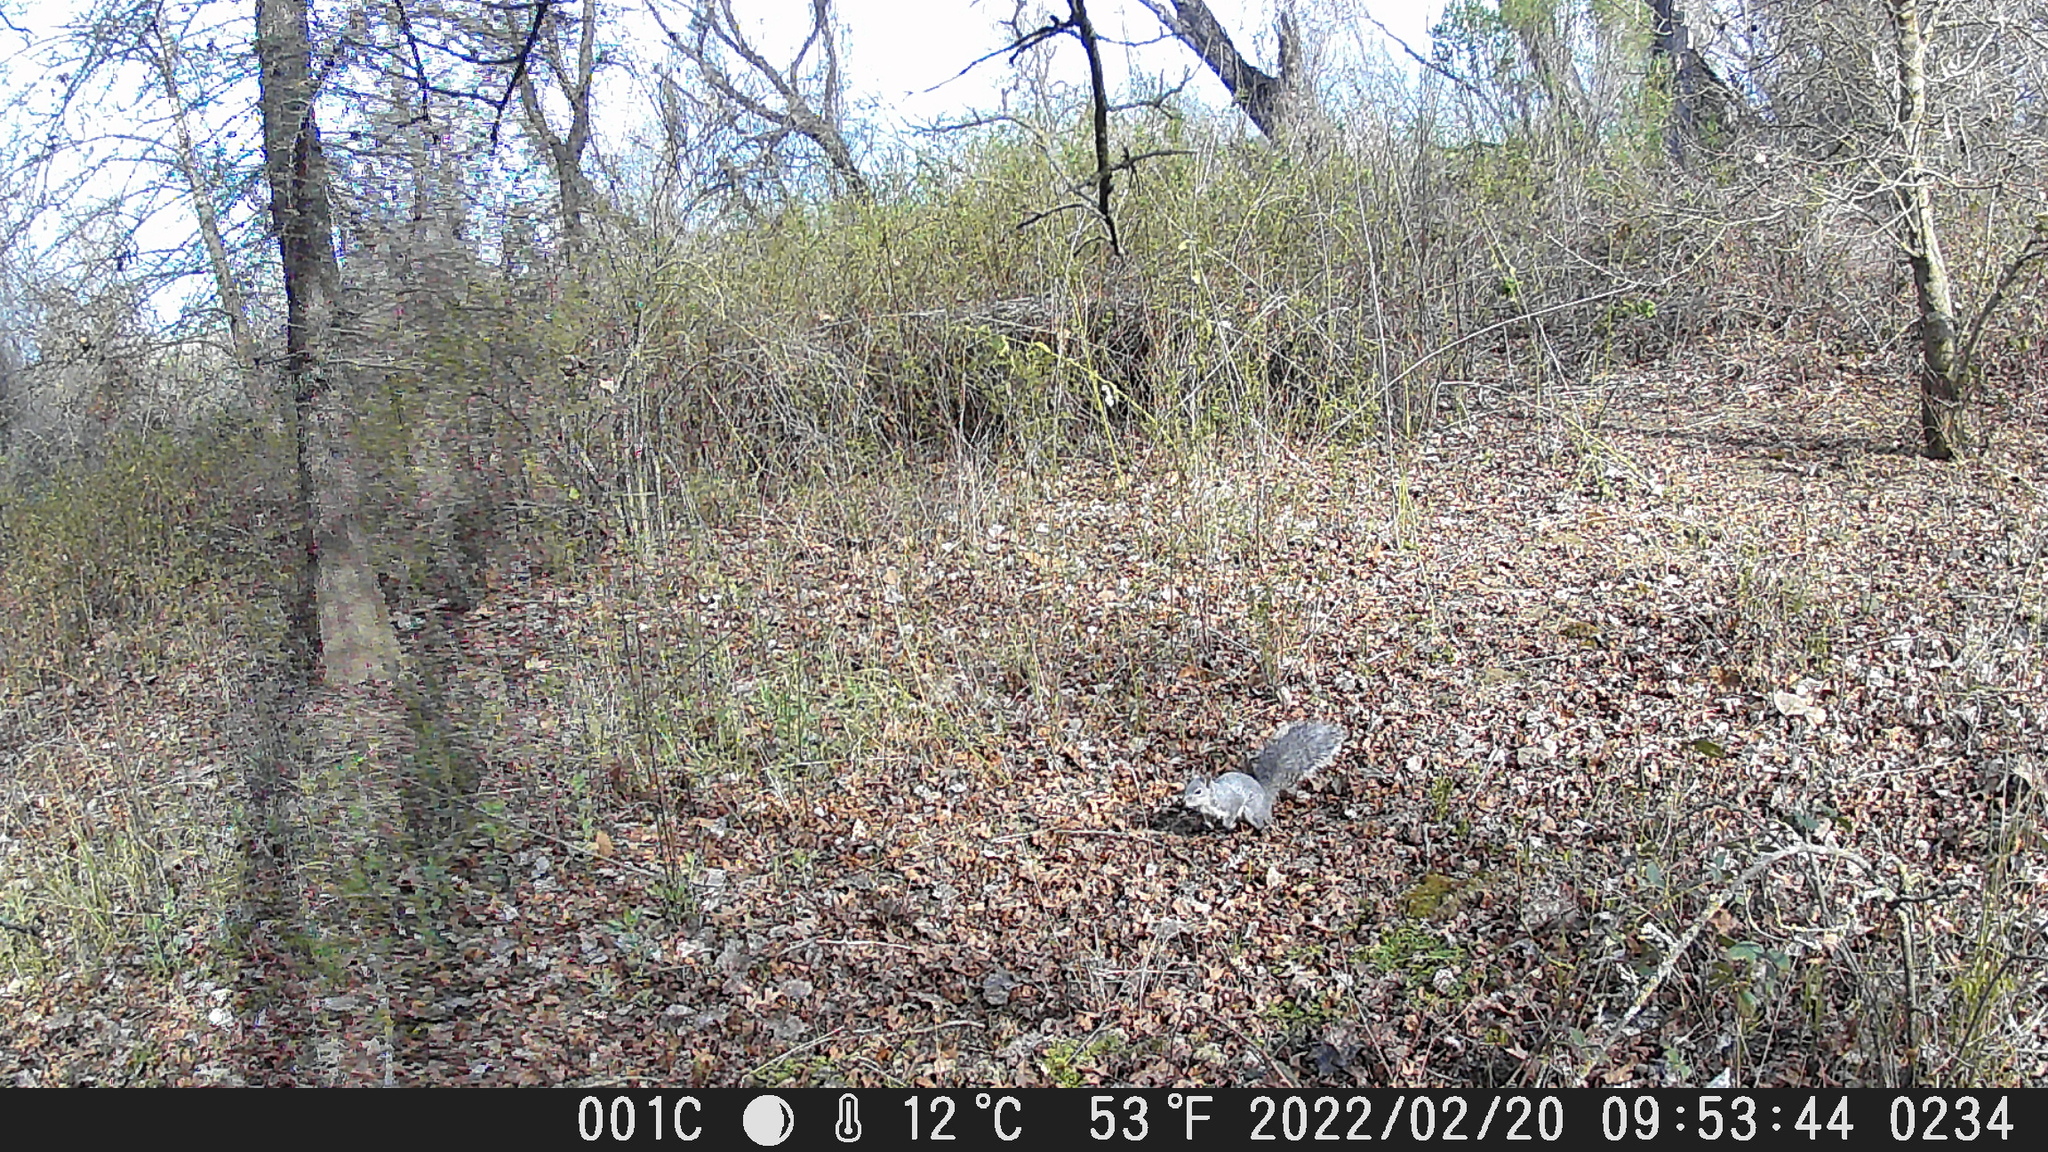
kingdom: Animalia
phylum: Chordata
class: Mammalia
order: Rodentia
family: Sciuridae
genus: Sciurus
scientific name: Sciurus griseus
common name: Western gray squirrel
